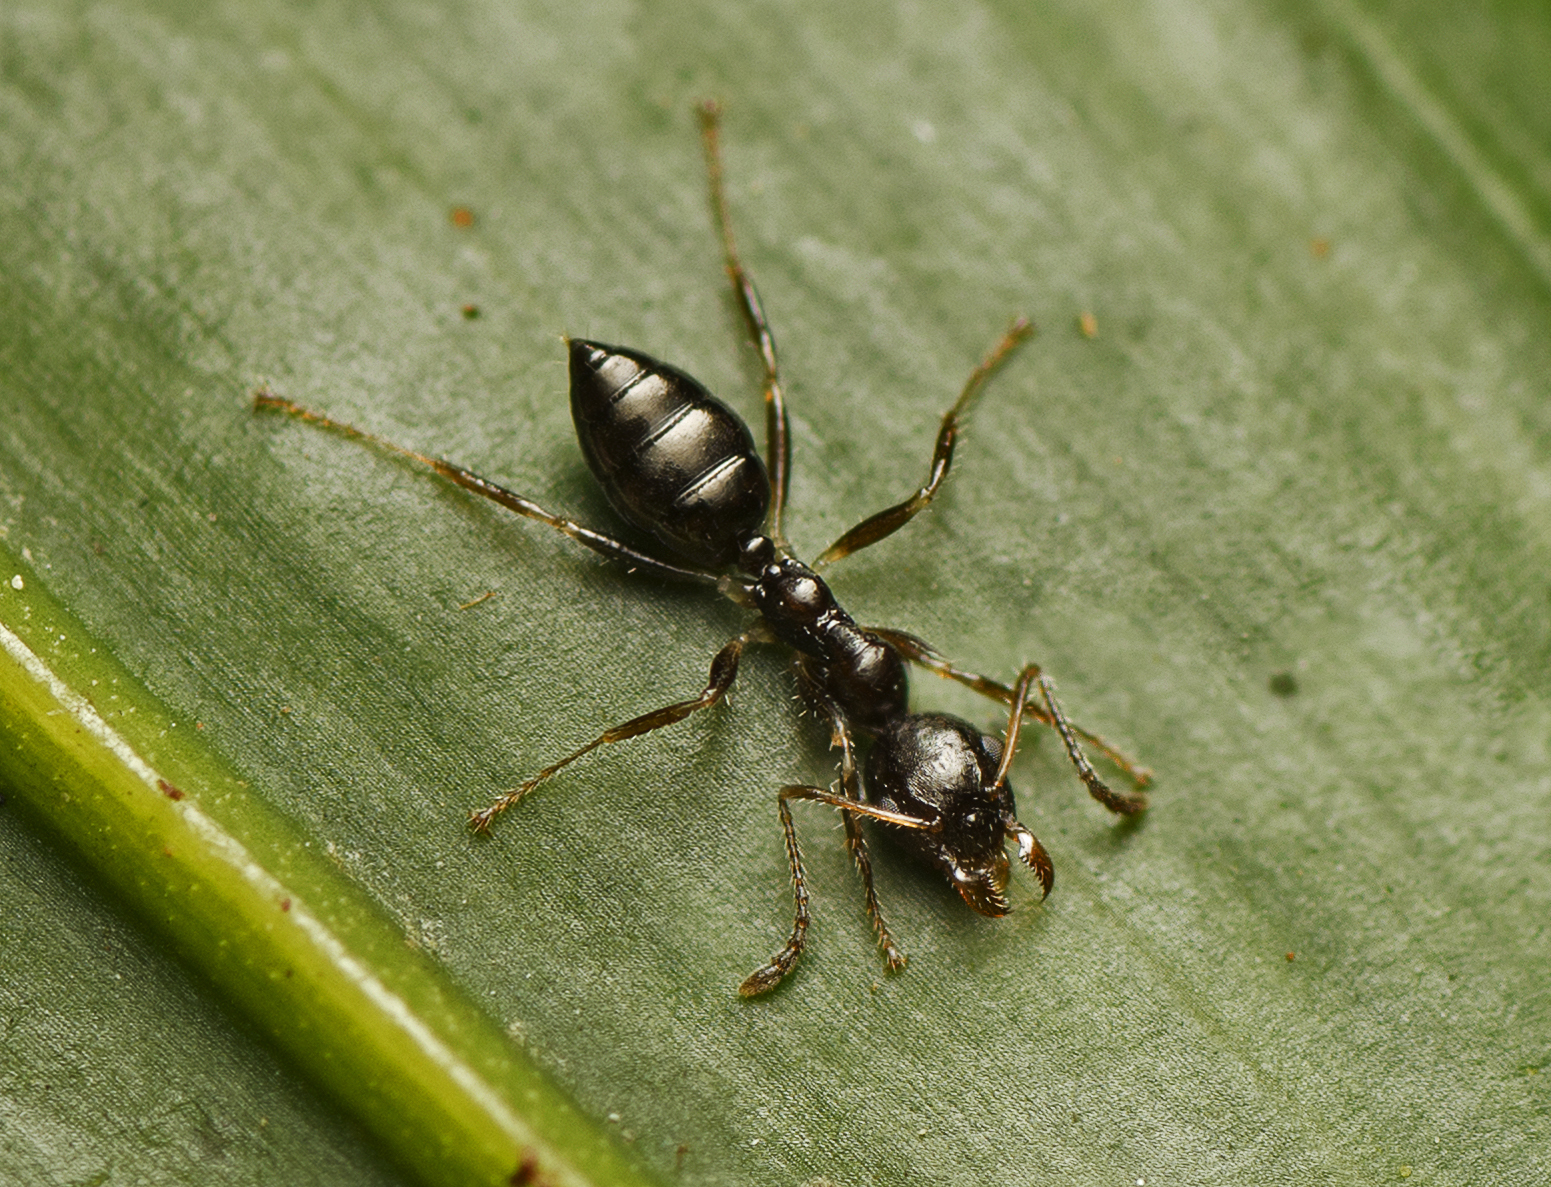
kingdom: Animalia
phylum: Arthropoda
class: Insecta
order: Hymenoptera
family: Formicidae
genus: Myrmecorhynchus
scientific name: Myrmecorhynchus emeryi
